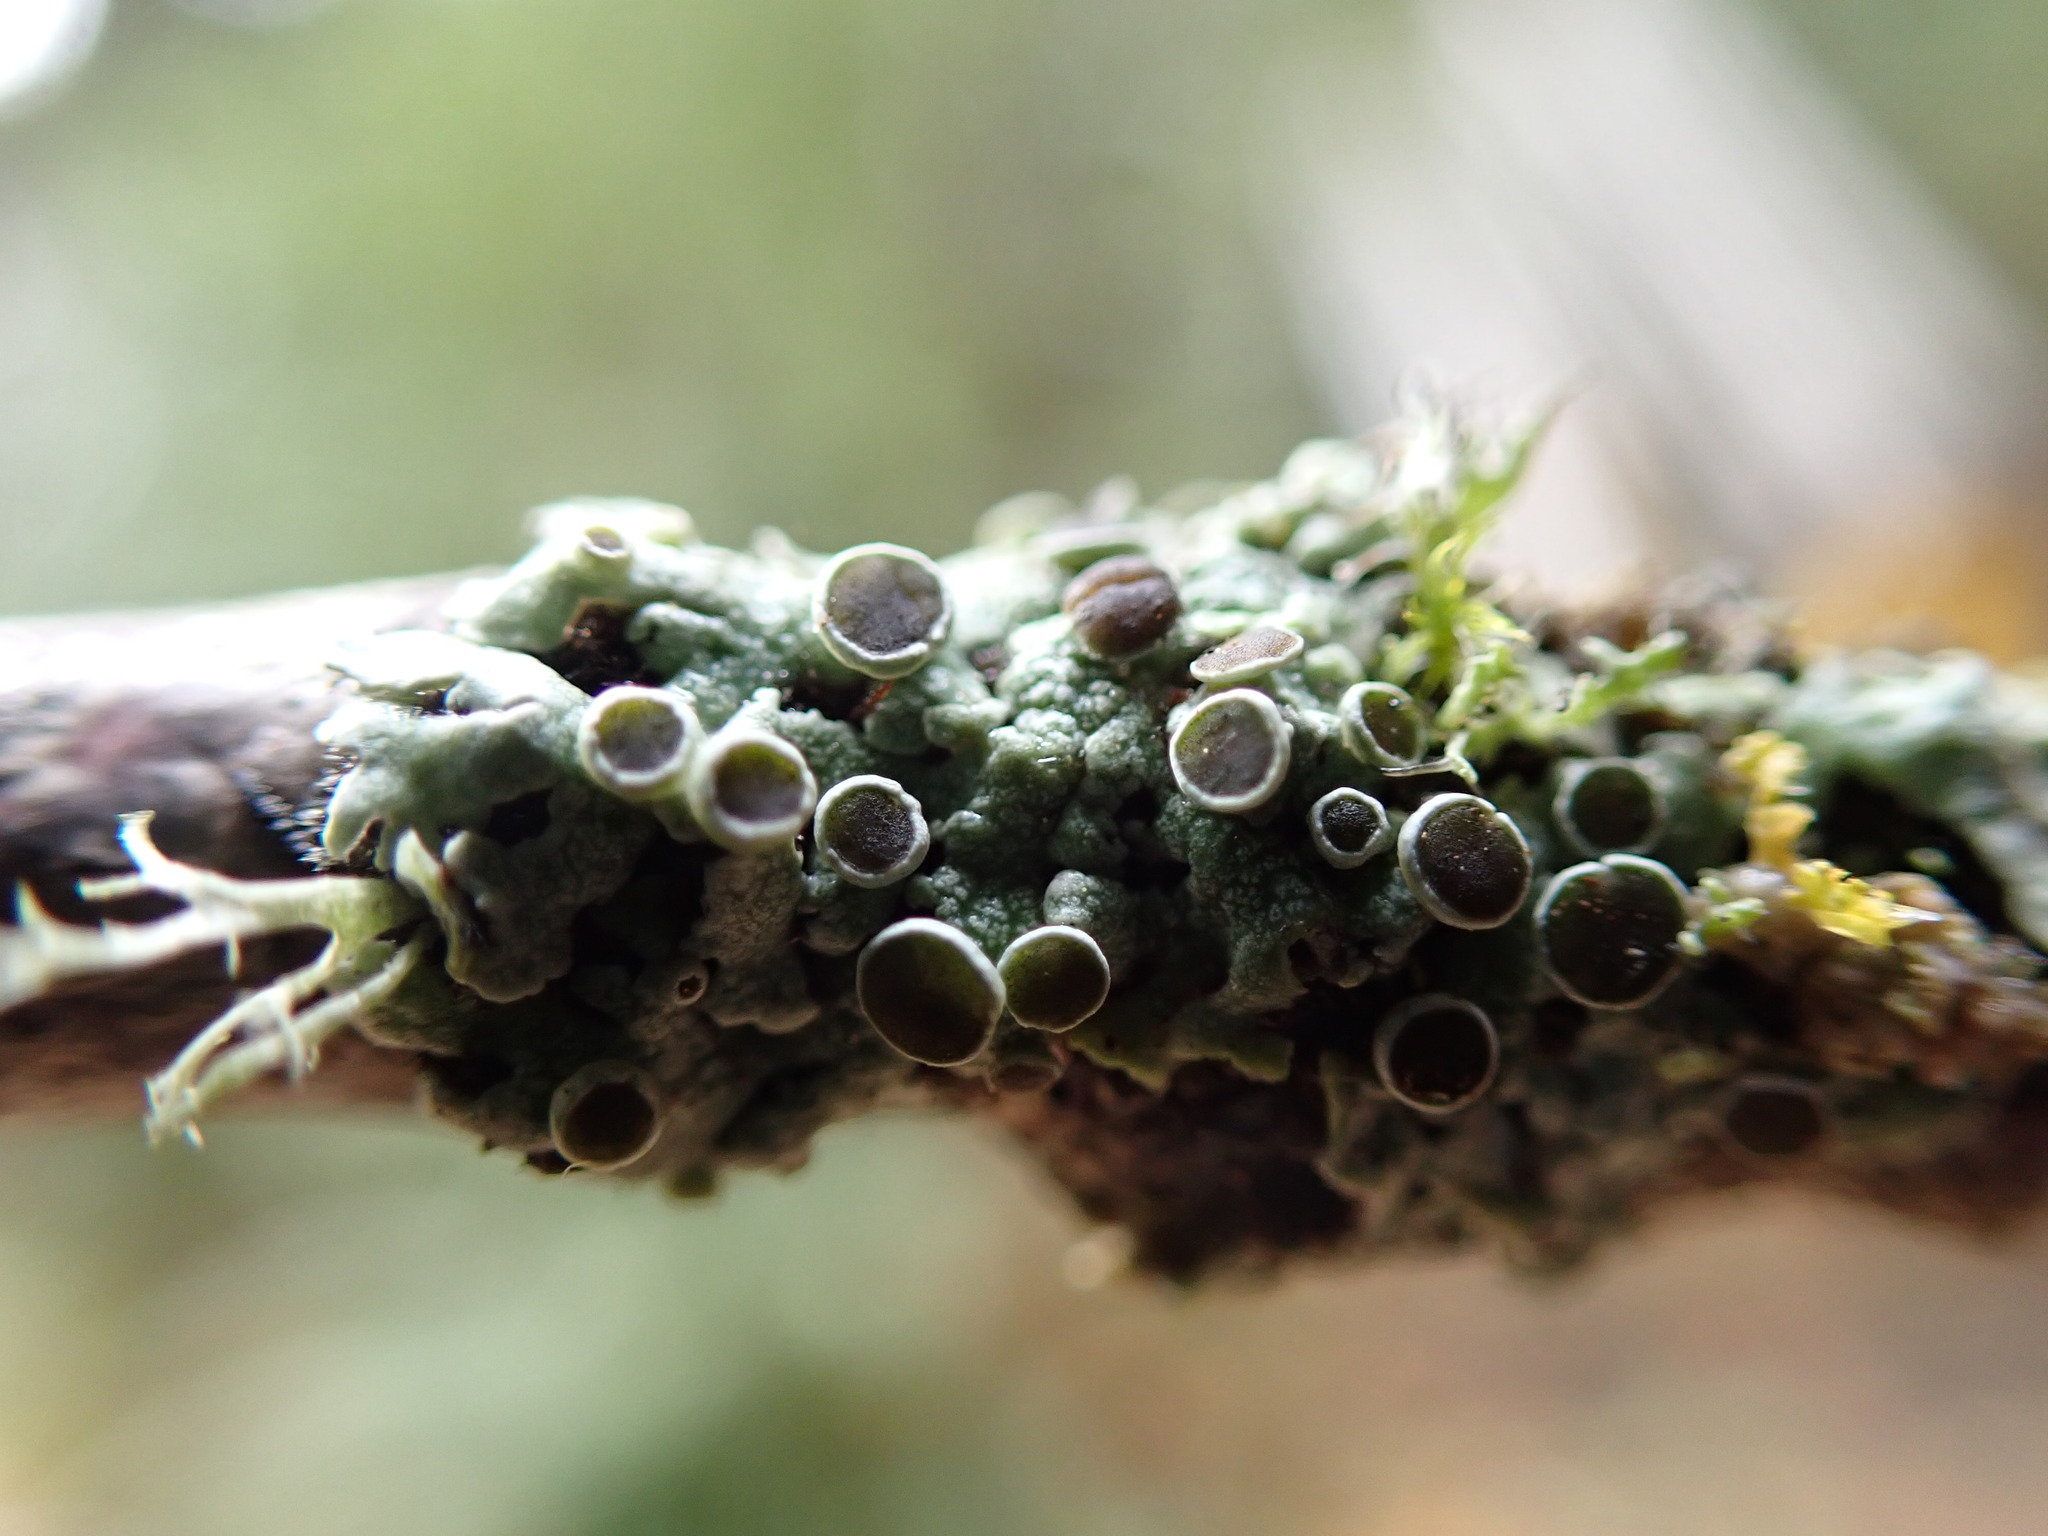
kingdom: Fungi
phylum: Ascomycota
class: Lecanoromycetes
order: Caliciales
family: Physciaceae
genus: Physcia
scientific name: Physcia aipolia
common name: Hoary rosette lichen
